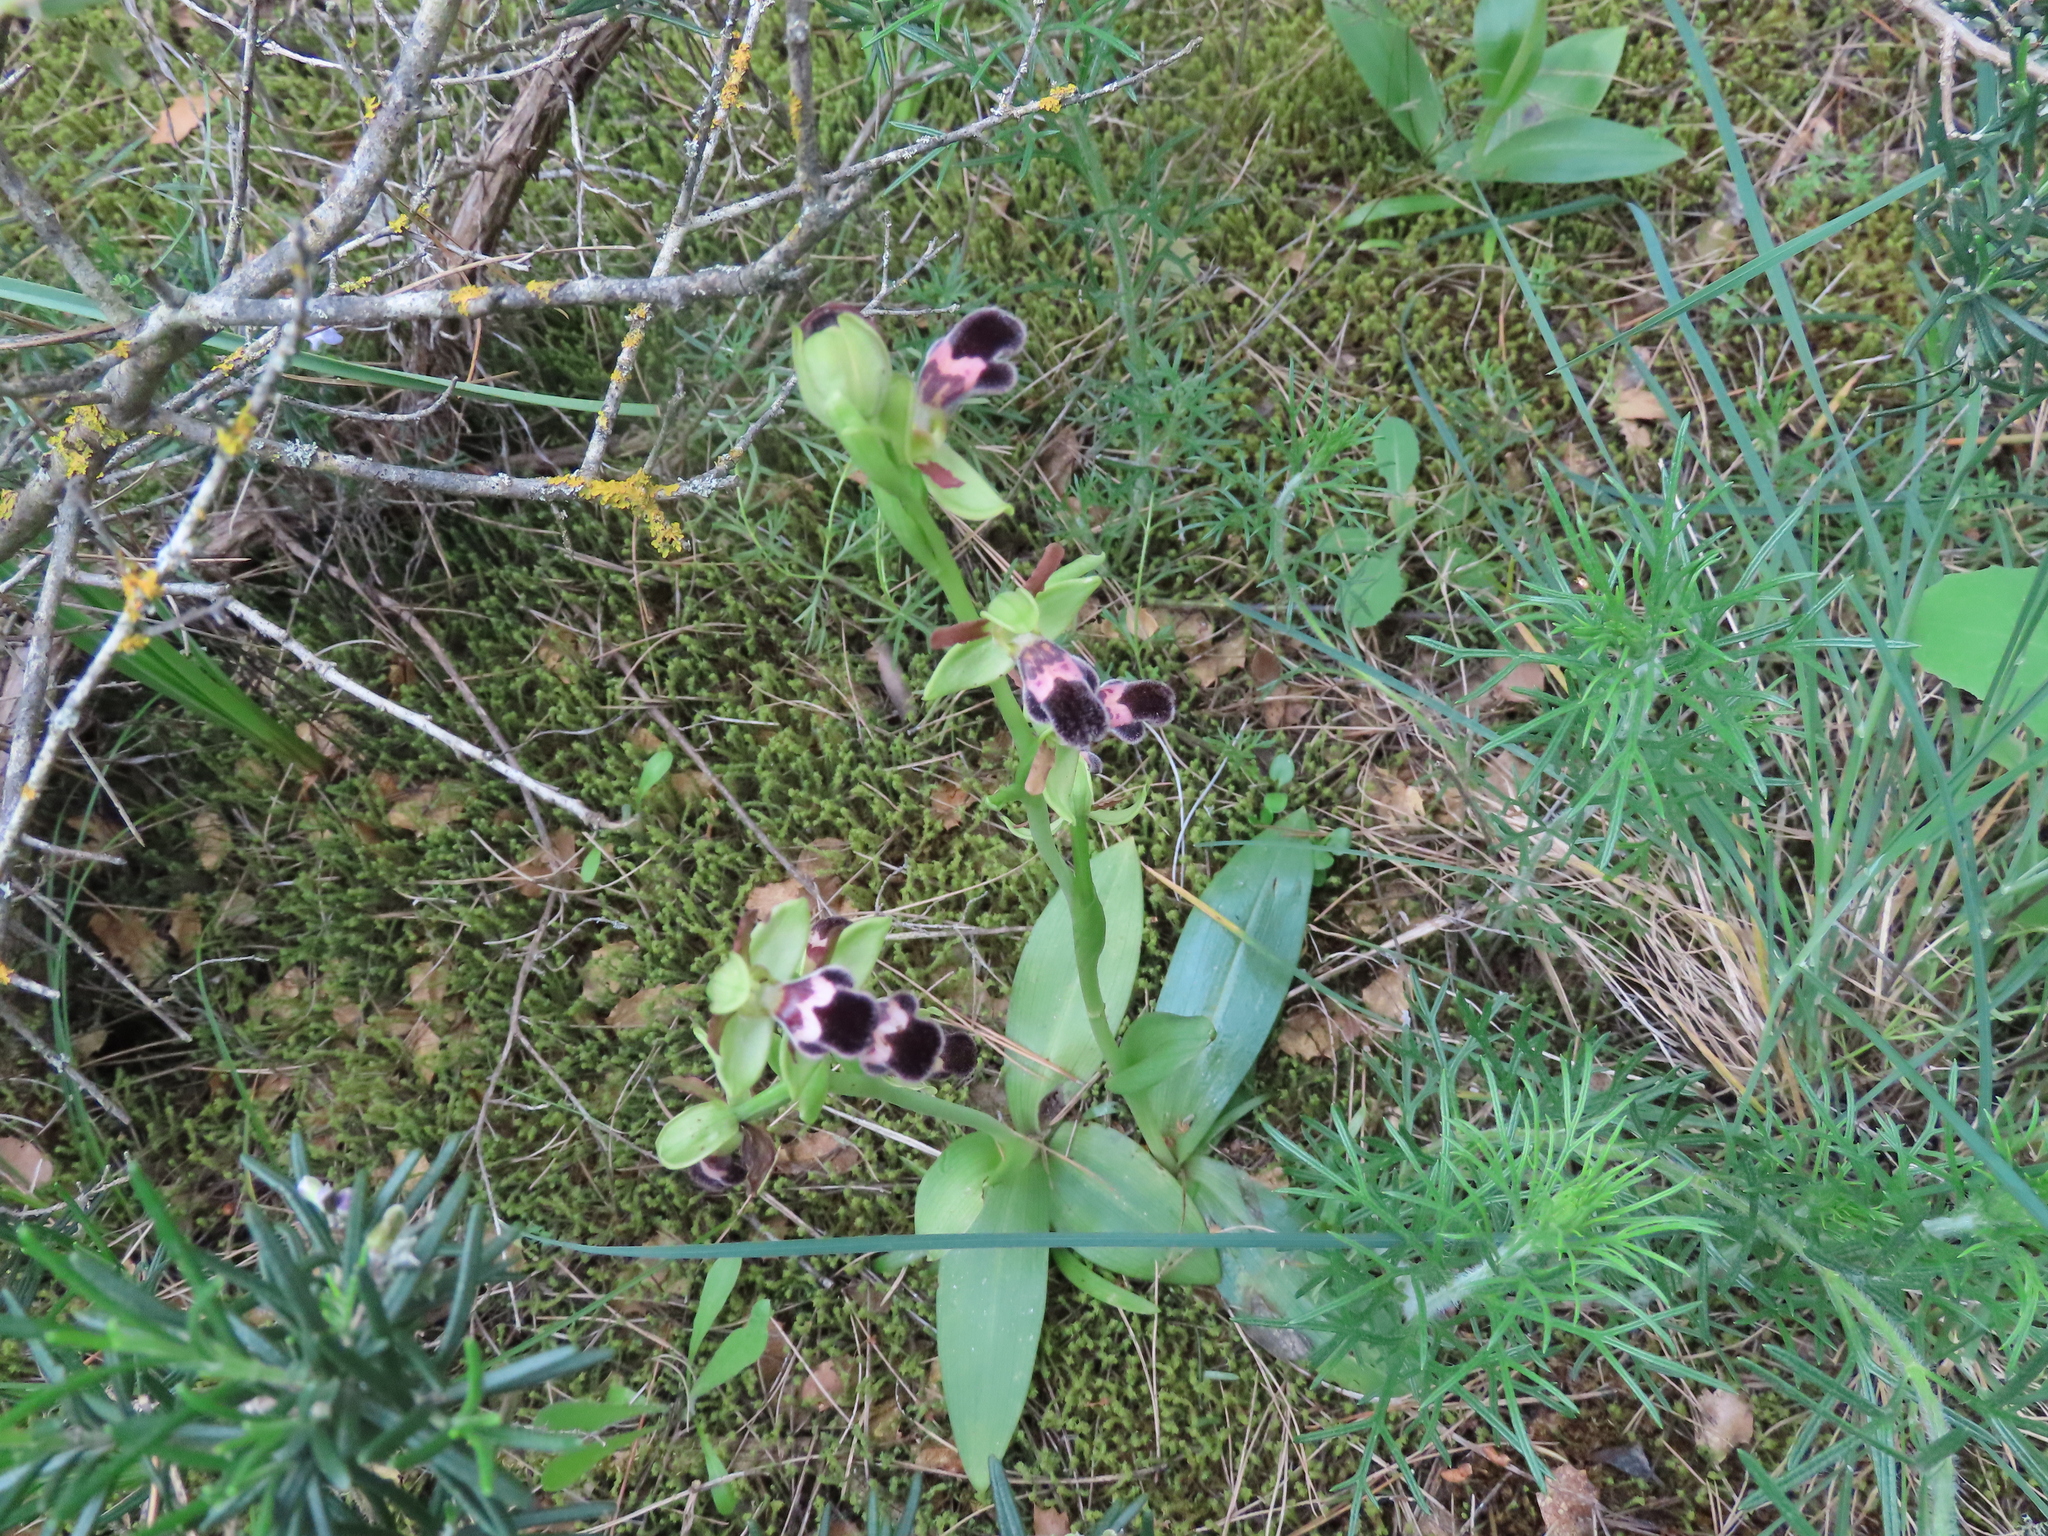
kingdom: Plantae
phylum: Tracheophyta
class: Liliopsida
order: Asparagales
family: Orchidaceae
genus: Ophrys
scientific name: Ophrys omegaifera
